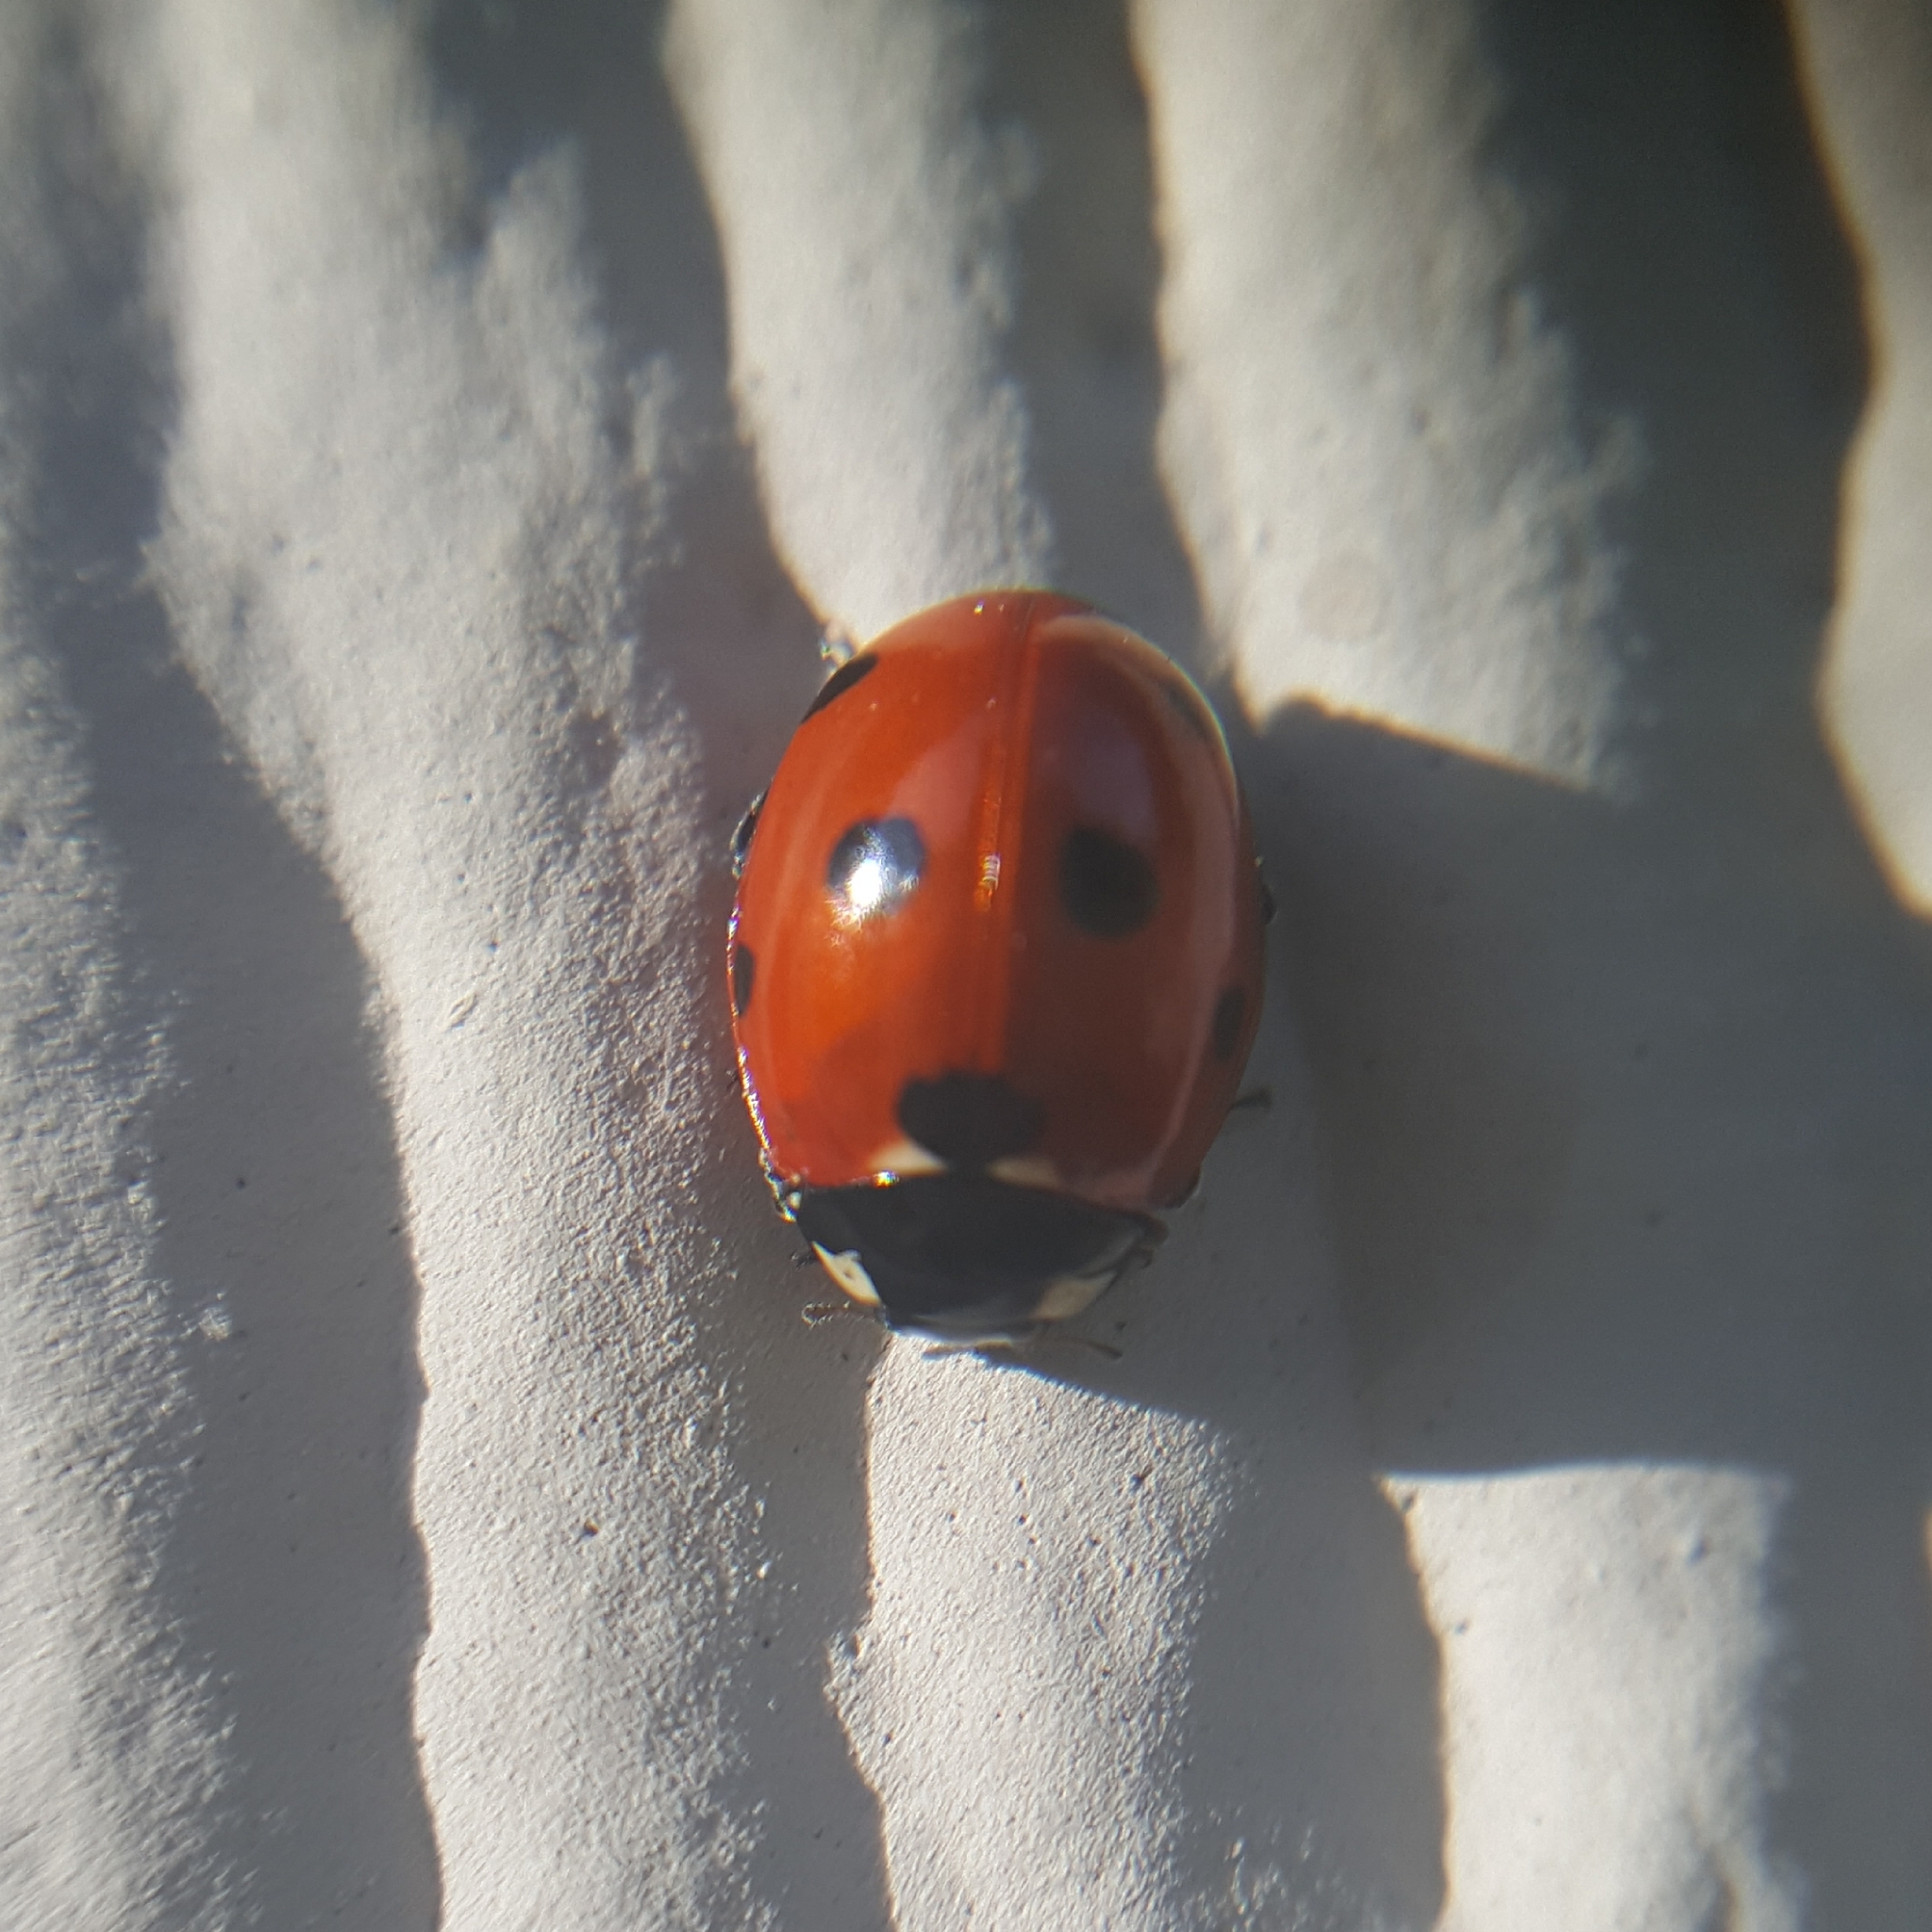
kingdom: Animalia
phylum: Arthropoda
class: Insecta
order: Coleoptera
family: Coccinellidae
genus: Coccinella
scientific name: Coccinella septempunctata
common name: Sevenspotted lady beetle
